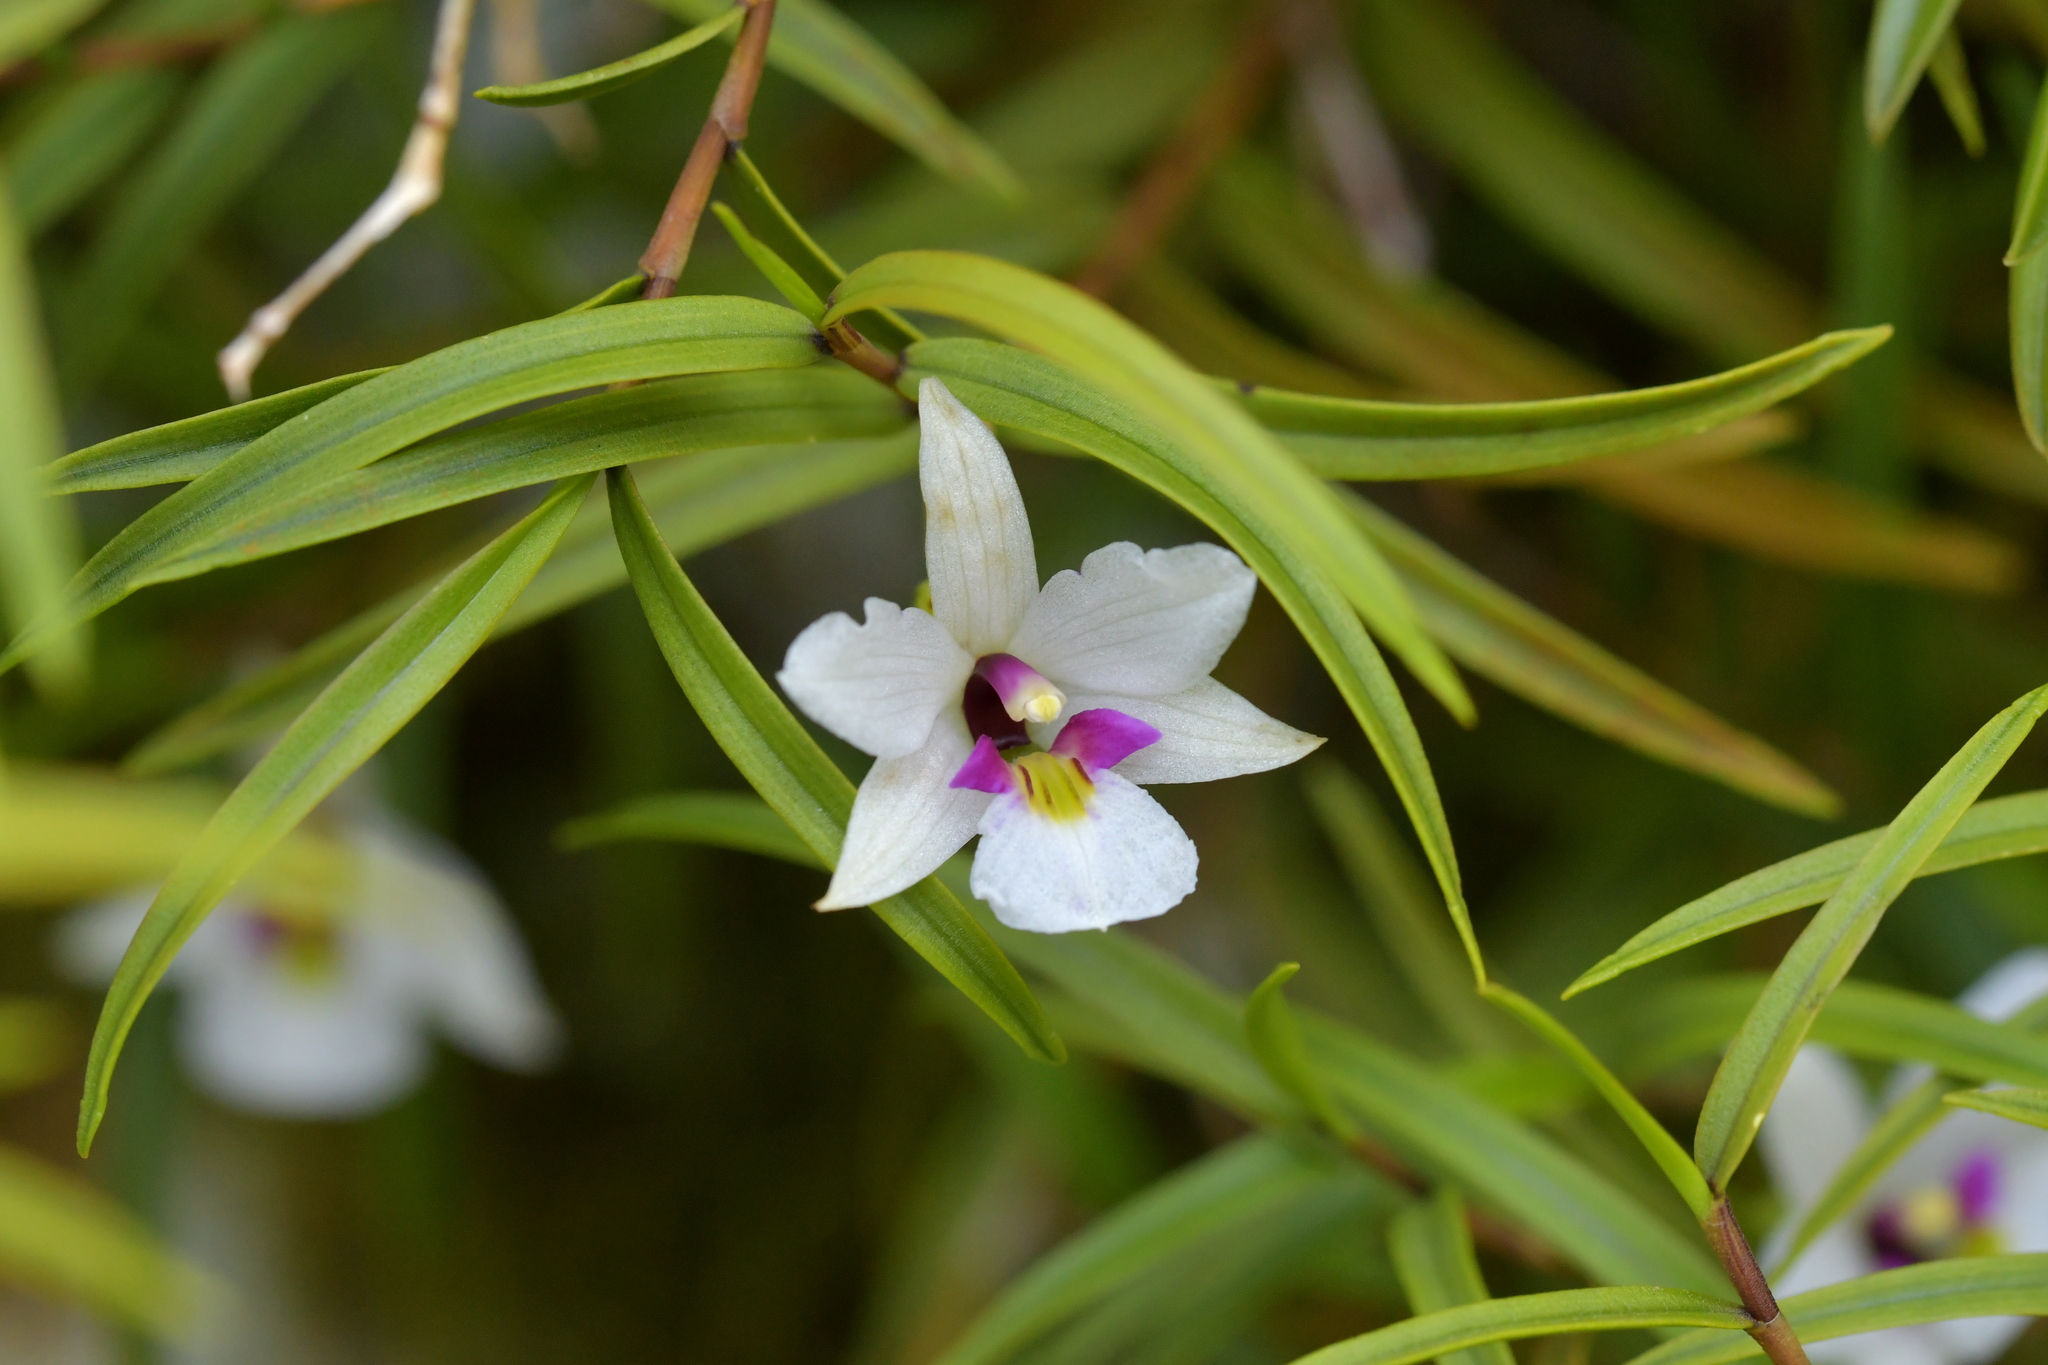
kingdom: Plantae
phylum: Tracheophyta
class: Liliopsida
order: Asparagales
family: Orchidaceae
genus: Dendrobium
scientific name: Dendrobium cunninghamii
